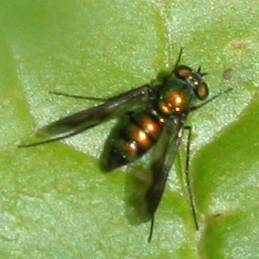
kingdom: Animalia
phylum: Arthropoda
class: Insecta
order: Diptera
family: Dolichopodidae
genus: Condylostylus
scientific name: Condylostylus patibulatus
